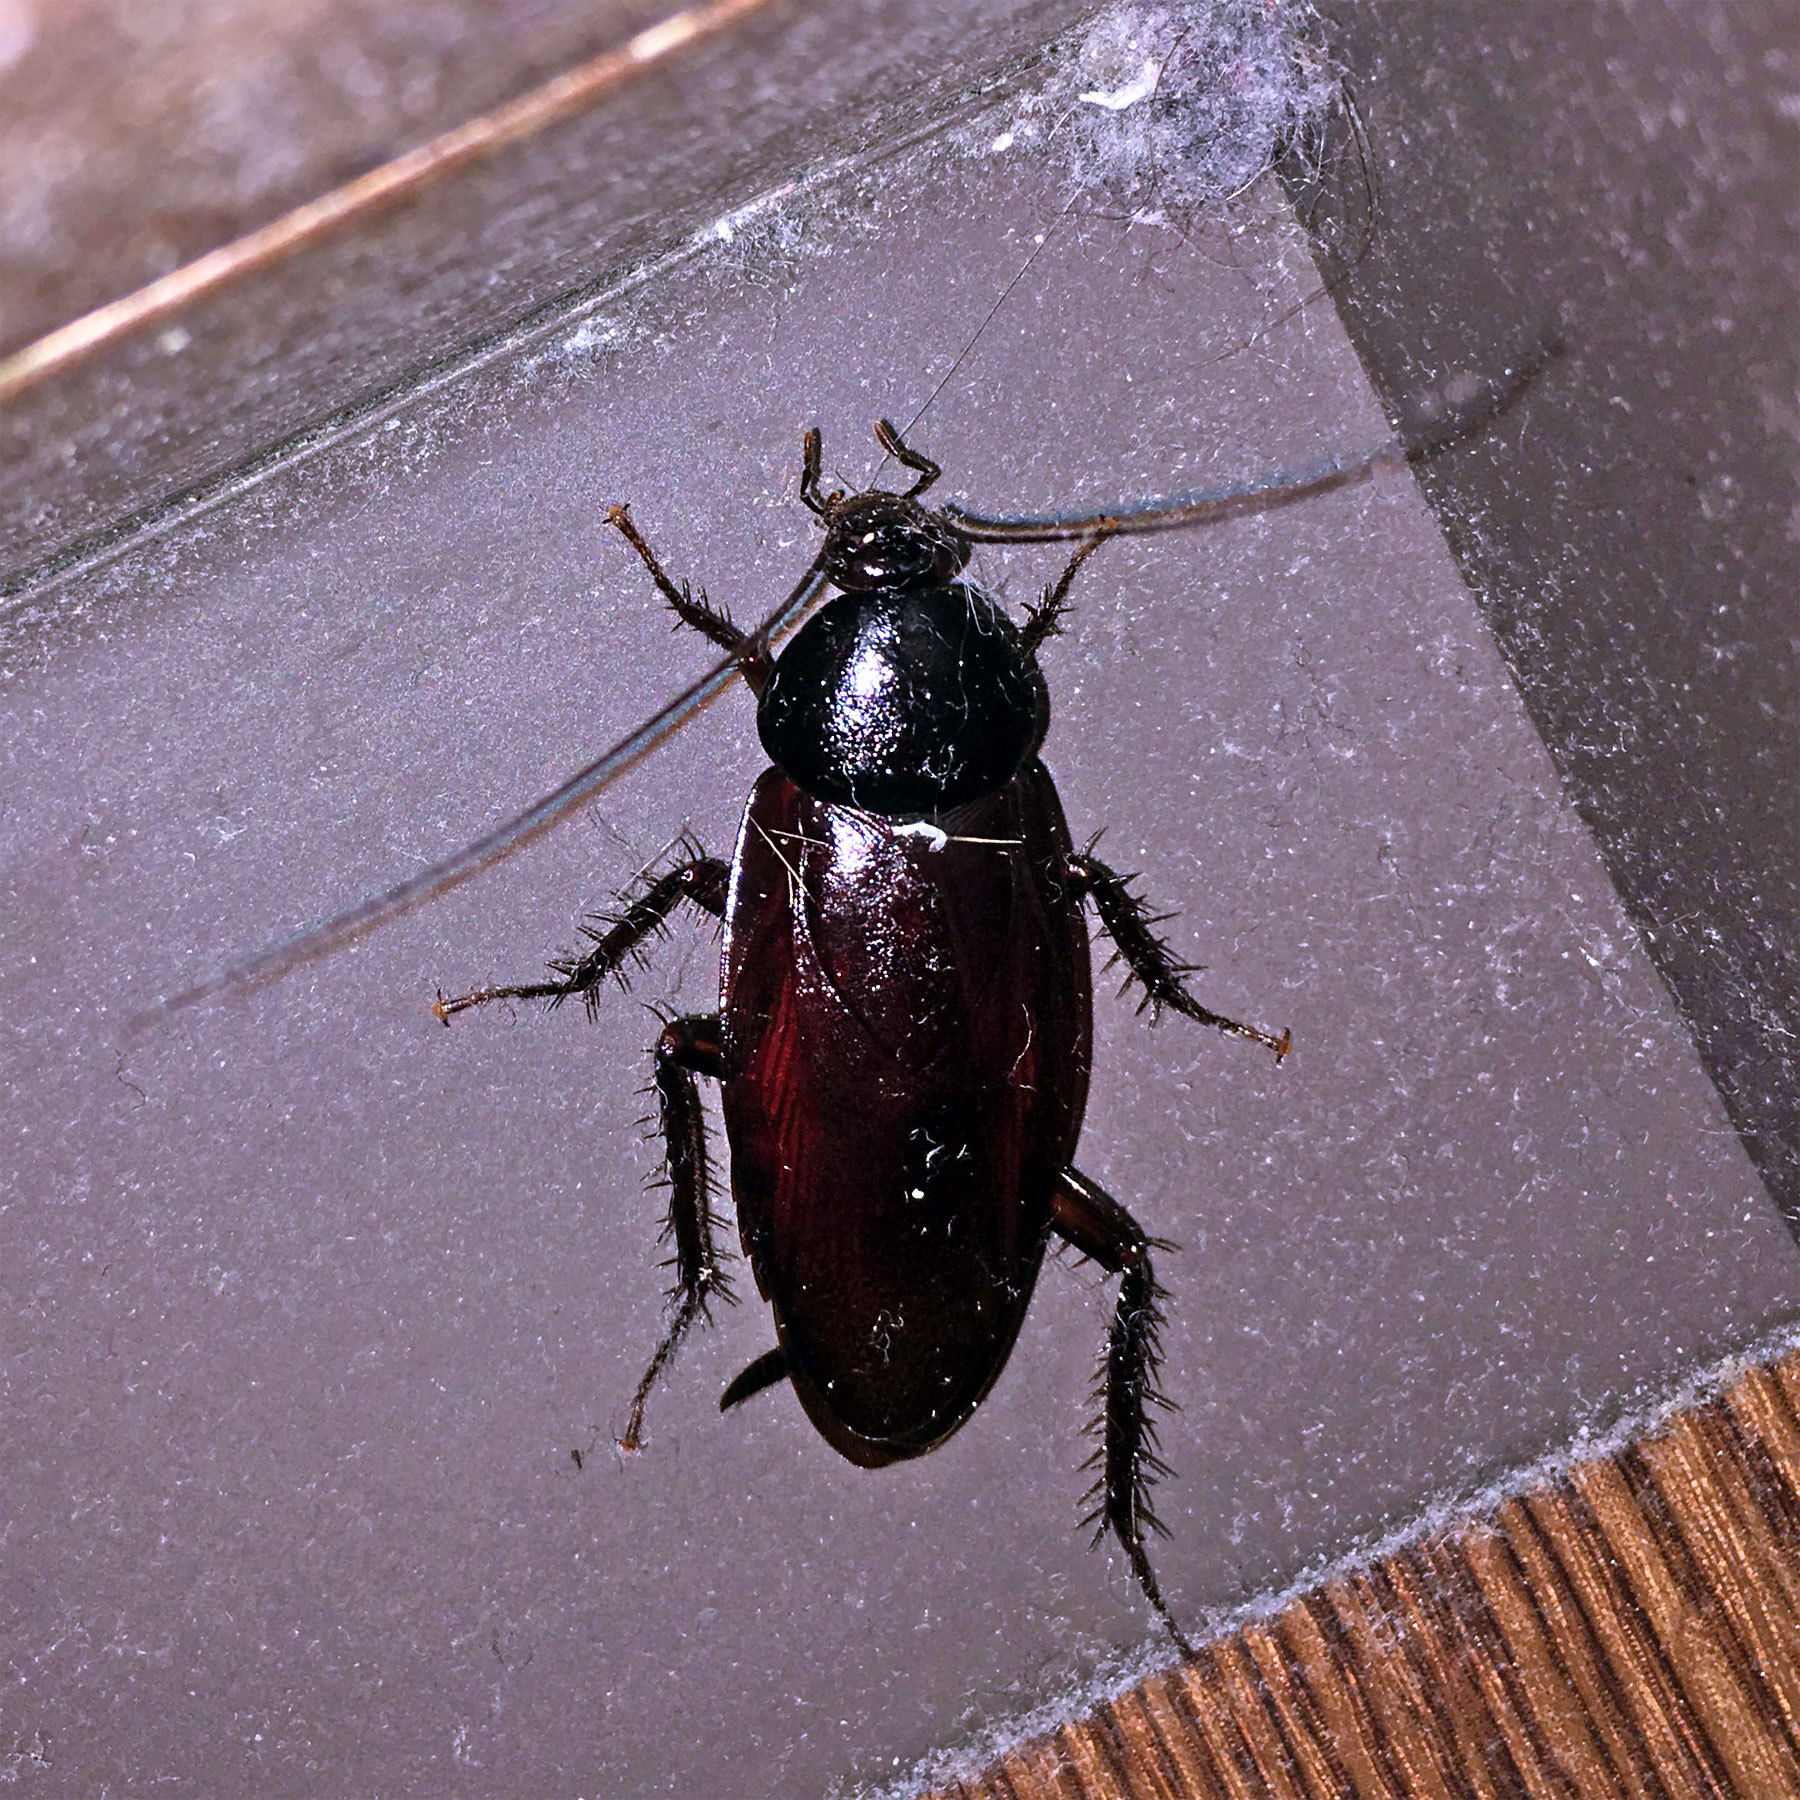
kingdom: Animalia
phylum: Arthropoda
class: Insecta
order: Blattodea
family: Blattidae
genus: Periplaneta
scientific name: Periplaneta fuliginosa
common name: Smokeybrown cockroad
